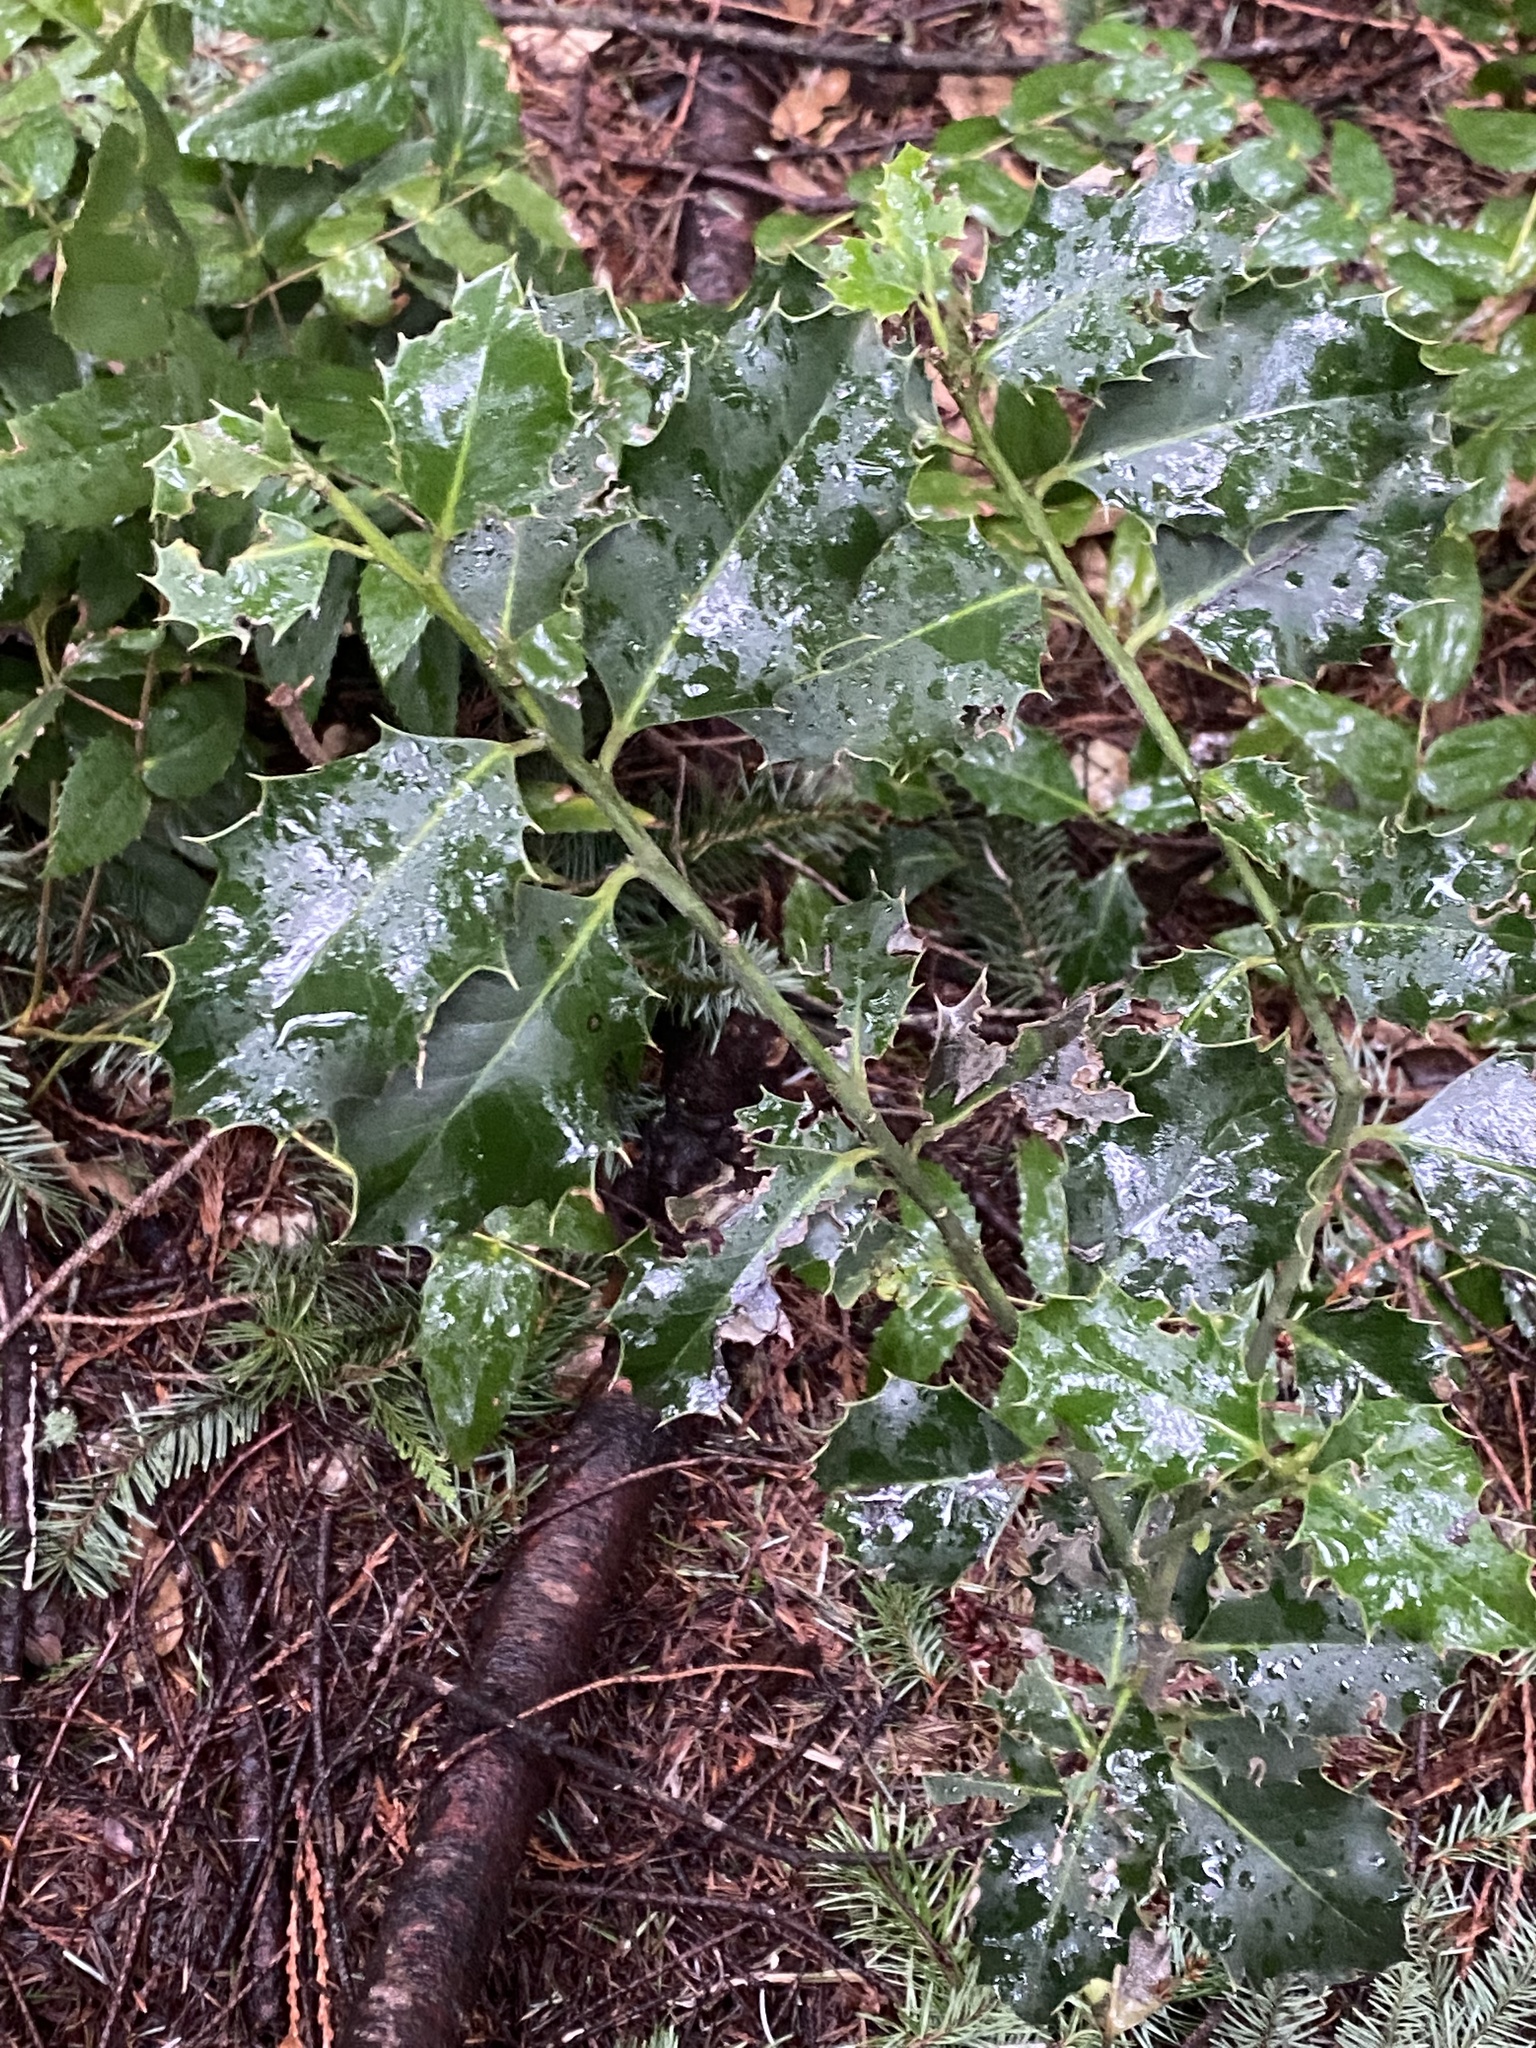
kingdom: Plantae
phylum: Tracheophyta
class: Magnoliopsida
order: Aquifoliales
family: Aquifoliaceae
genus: Ilex
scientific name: Ilex aquifolium
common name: English holly
